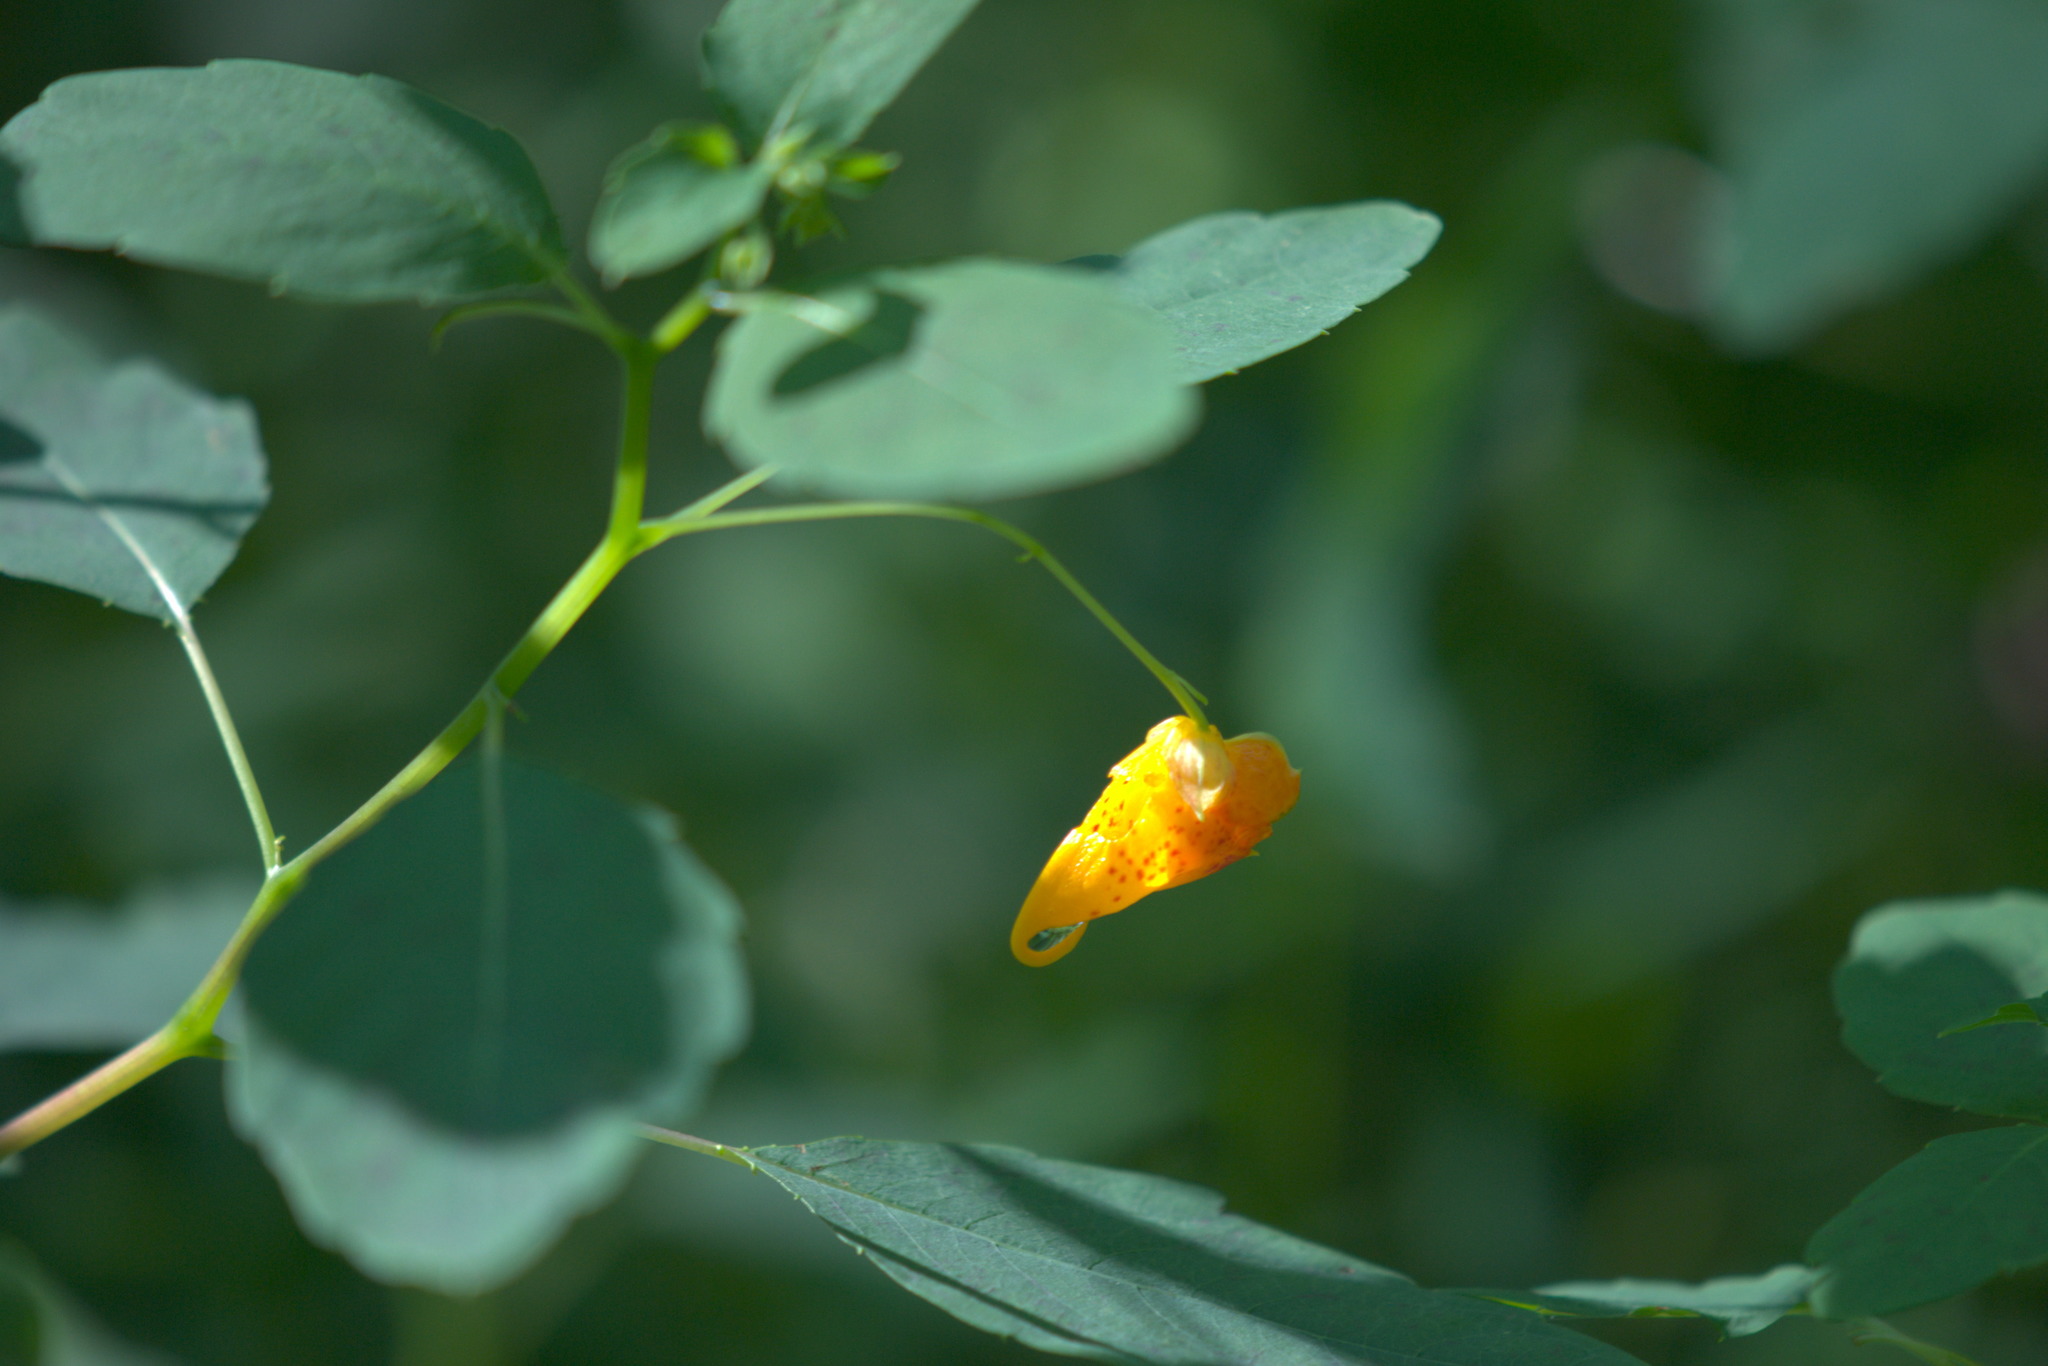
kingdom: Plantae
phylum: Tracheophyta
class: Magnoliopsida
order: Ericales
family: Balsaminaceae
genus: Impatiens
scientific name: Impatiens capensis
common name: Orange balsam
